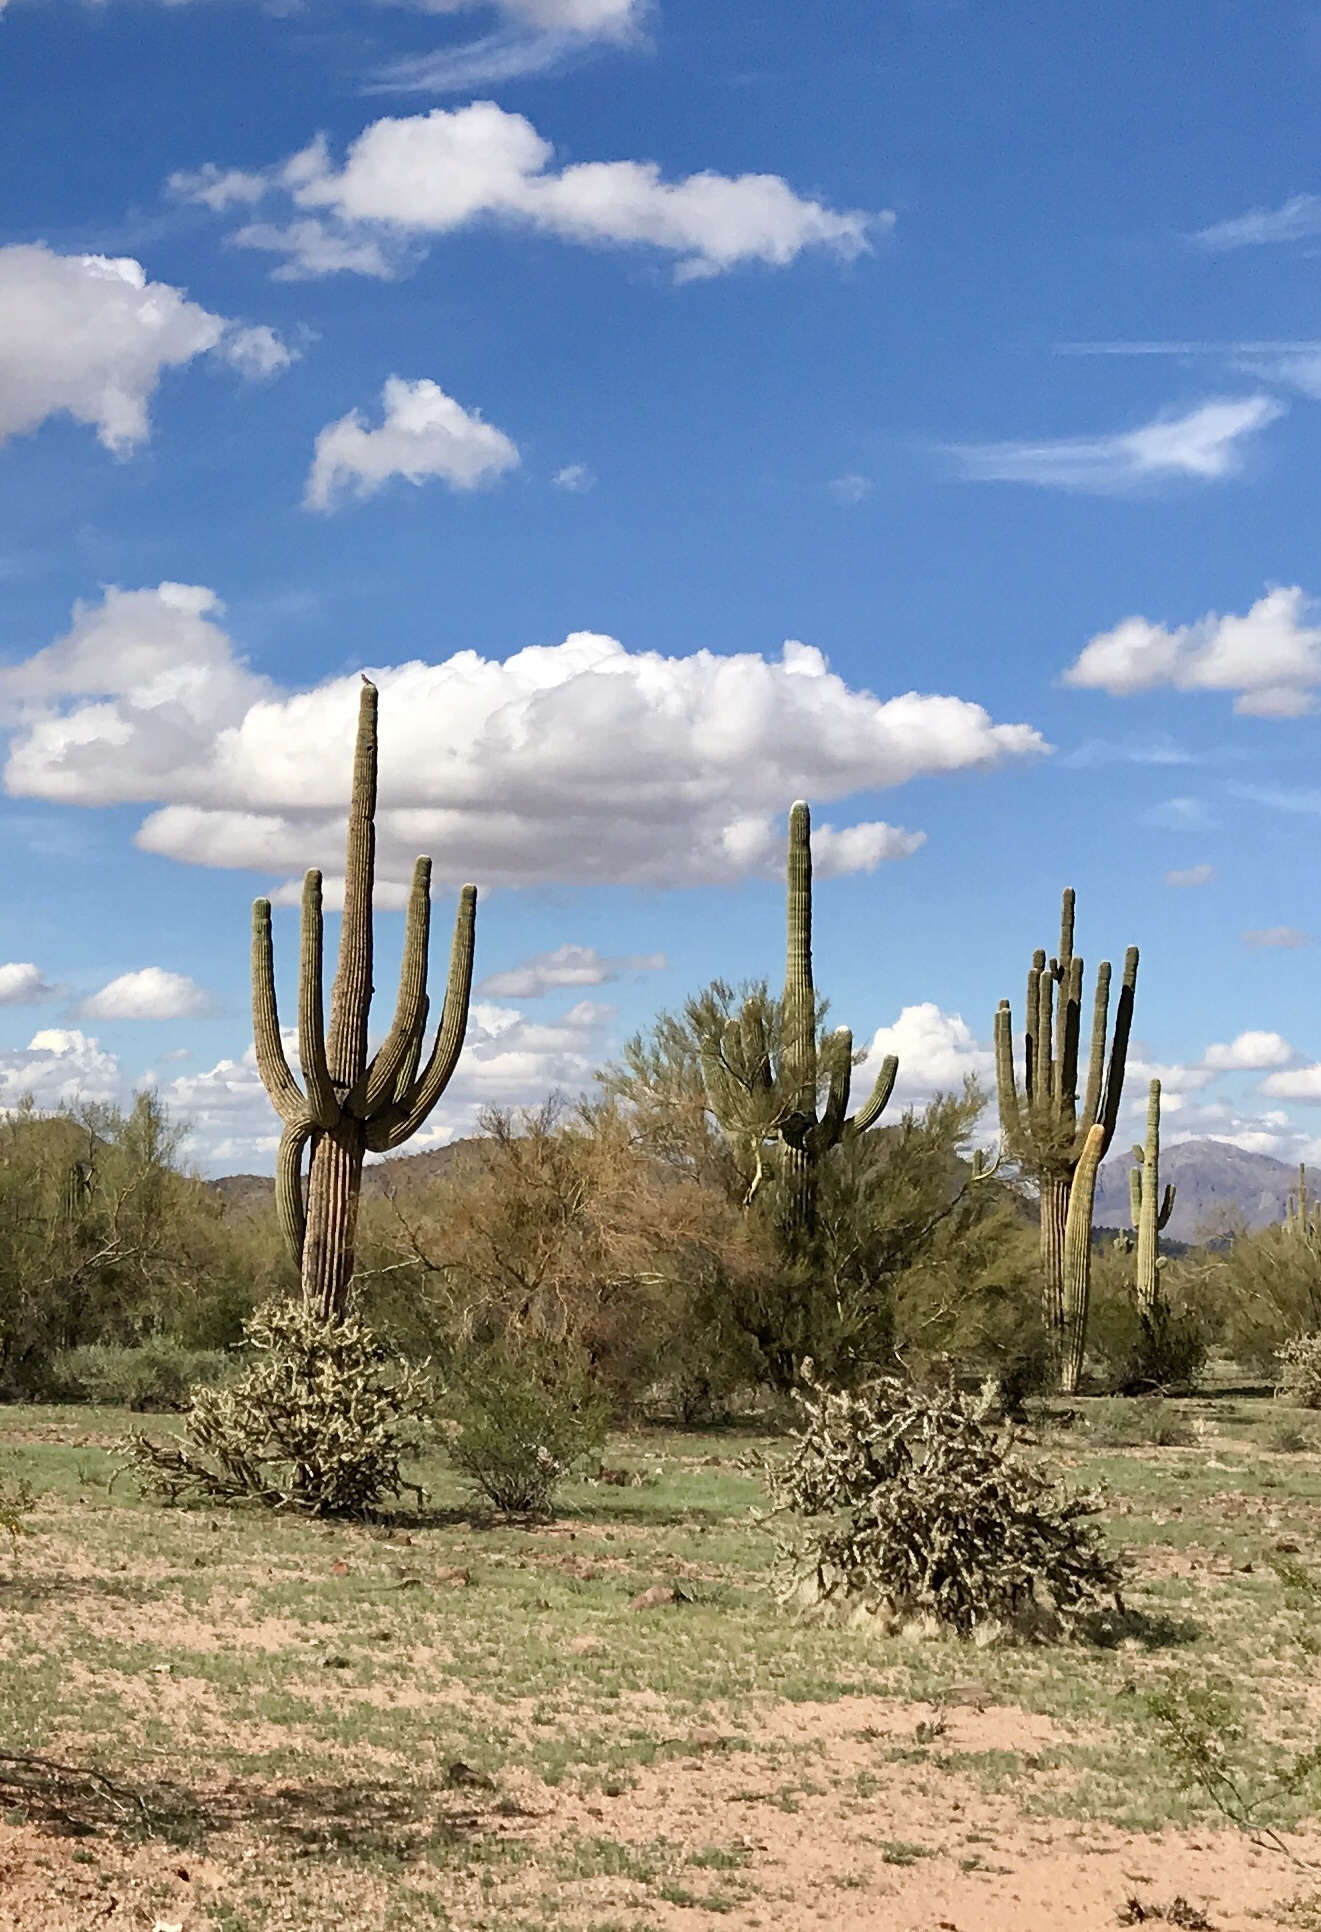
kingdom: Plantae
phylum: Tracheophyta
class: Magnoliopsida
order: Caryophyllales
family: Cactaceae
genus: Carnegiea
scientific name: Carnegiea gigantea
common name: Saguaro
